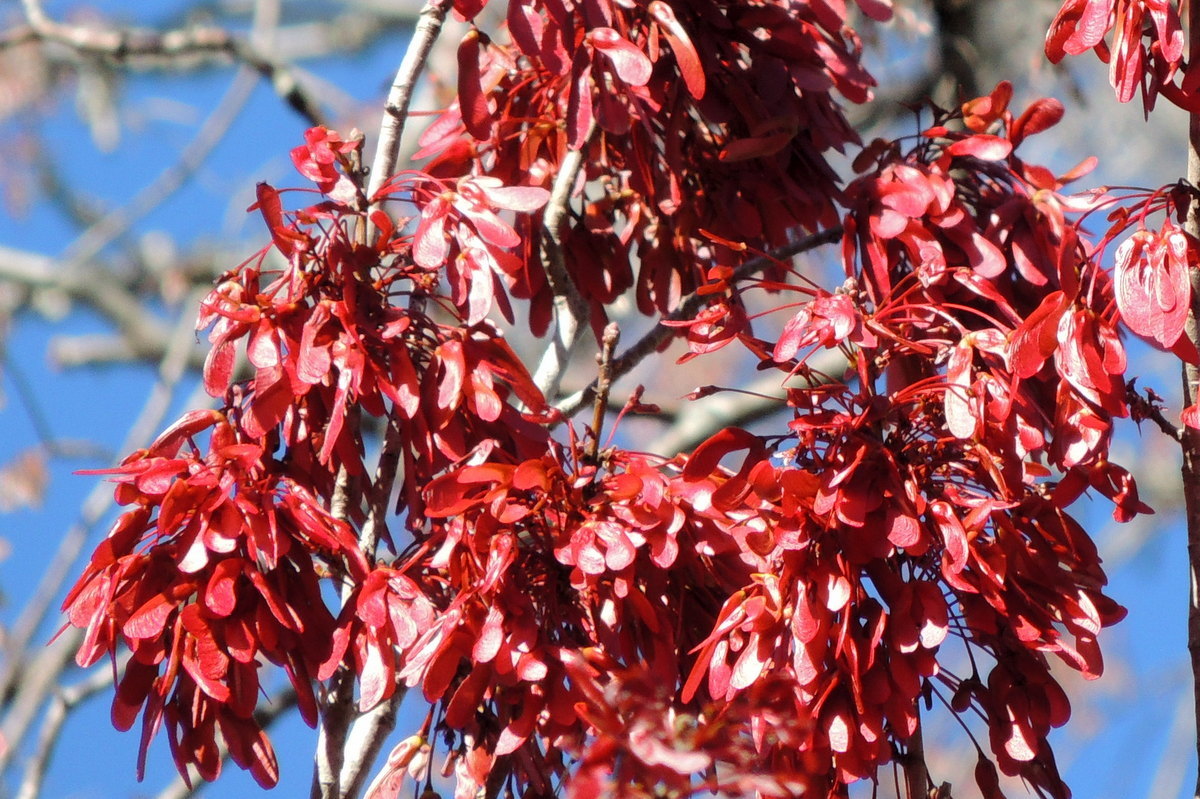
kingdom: Plantae
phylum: Tracheophyta
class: Magnoliopsida
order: Sapindales
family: Sapindaceae
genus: Acer
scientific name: Acer rubrum
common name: Red maple
